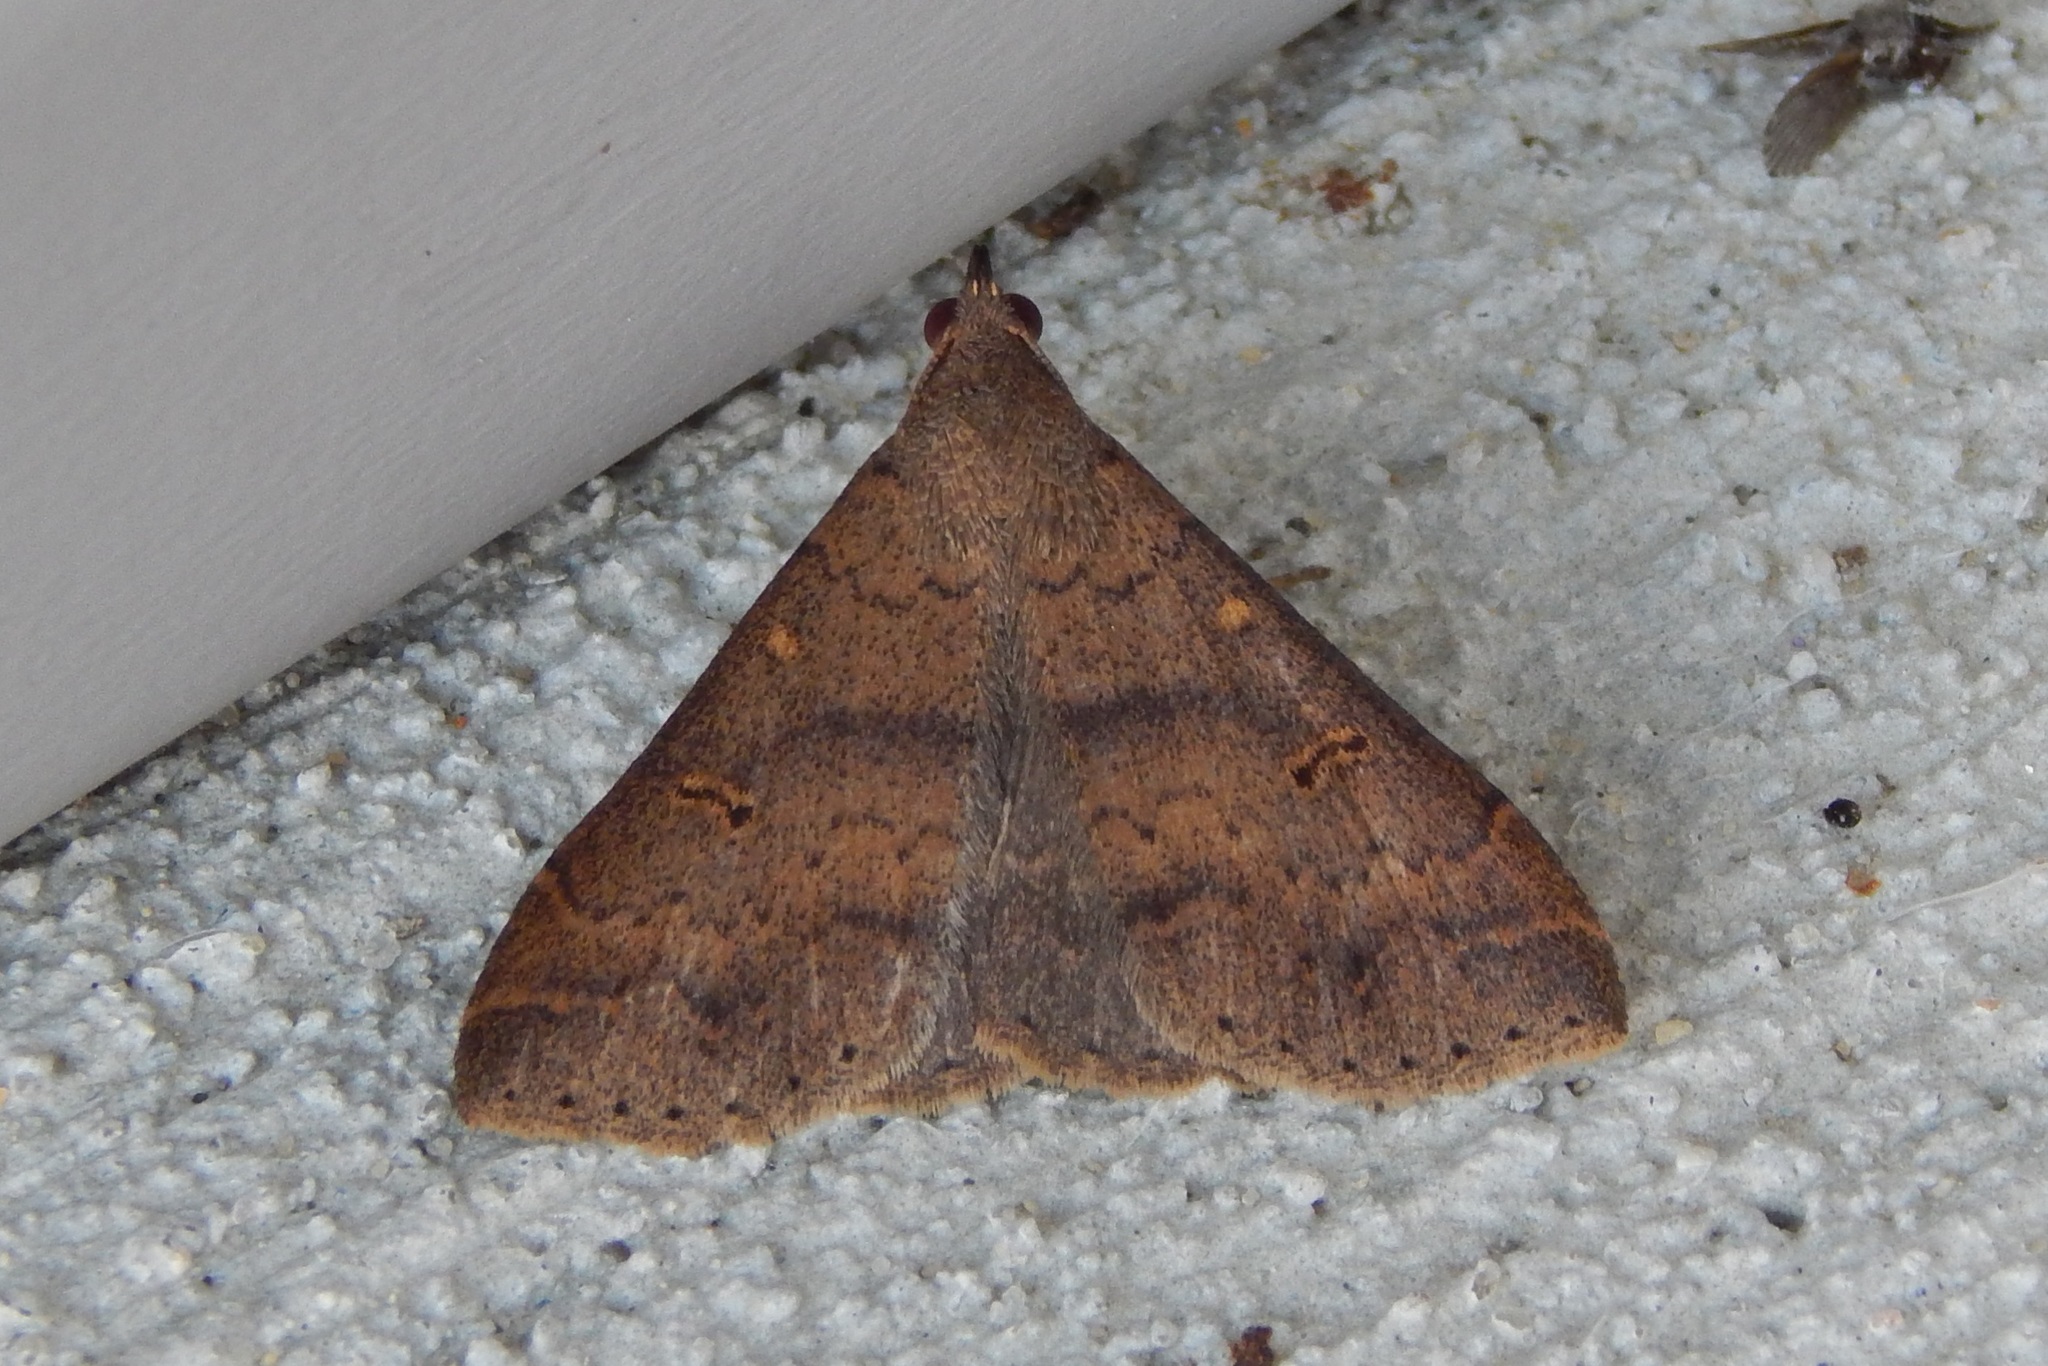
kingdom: Animalia
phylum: Arthropoda
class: Insecta
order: Lepidoptera
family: Erebidae
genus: Renia
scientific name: Renia discoloralis
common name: Discolored renia moth
